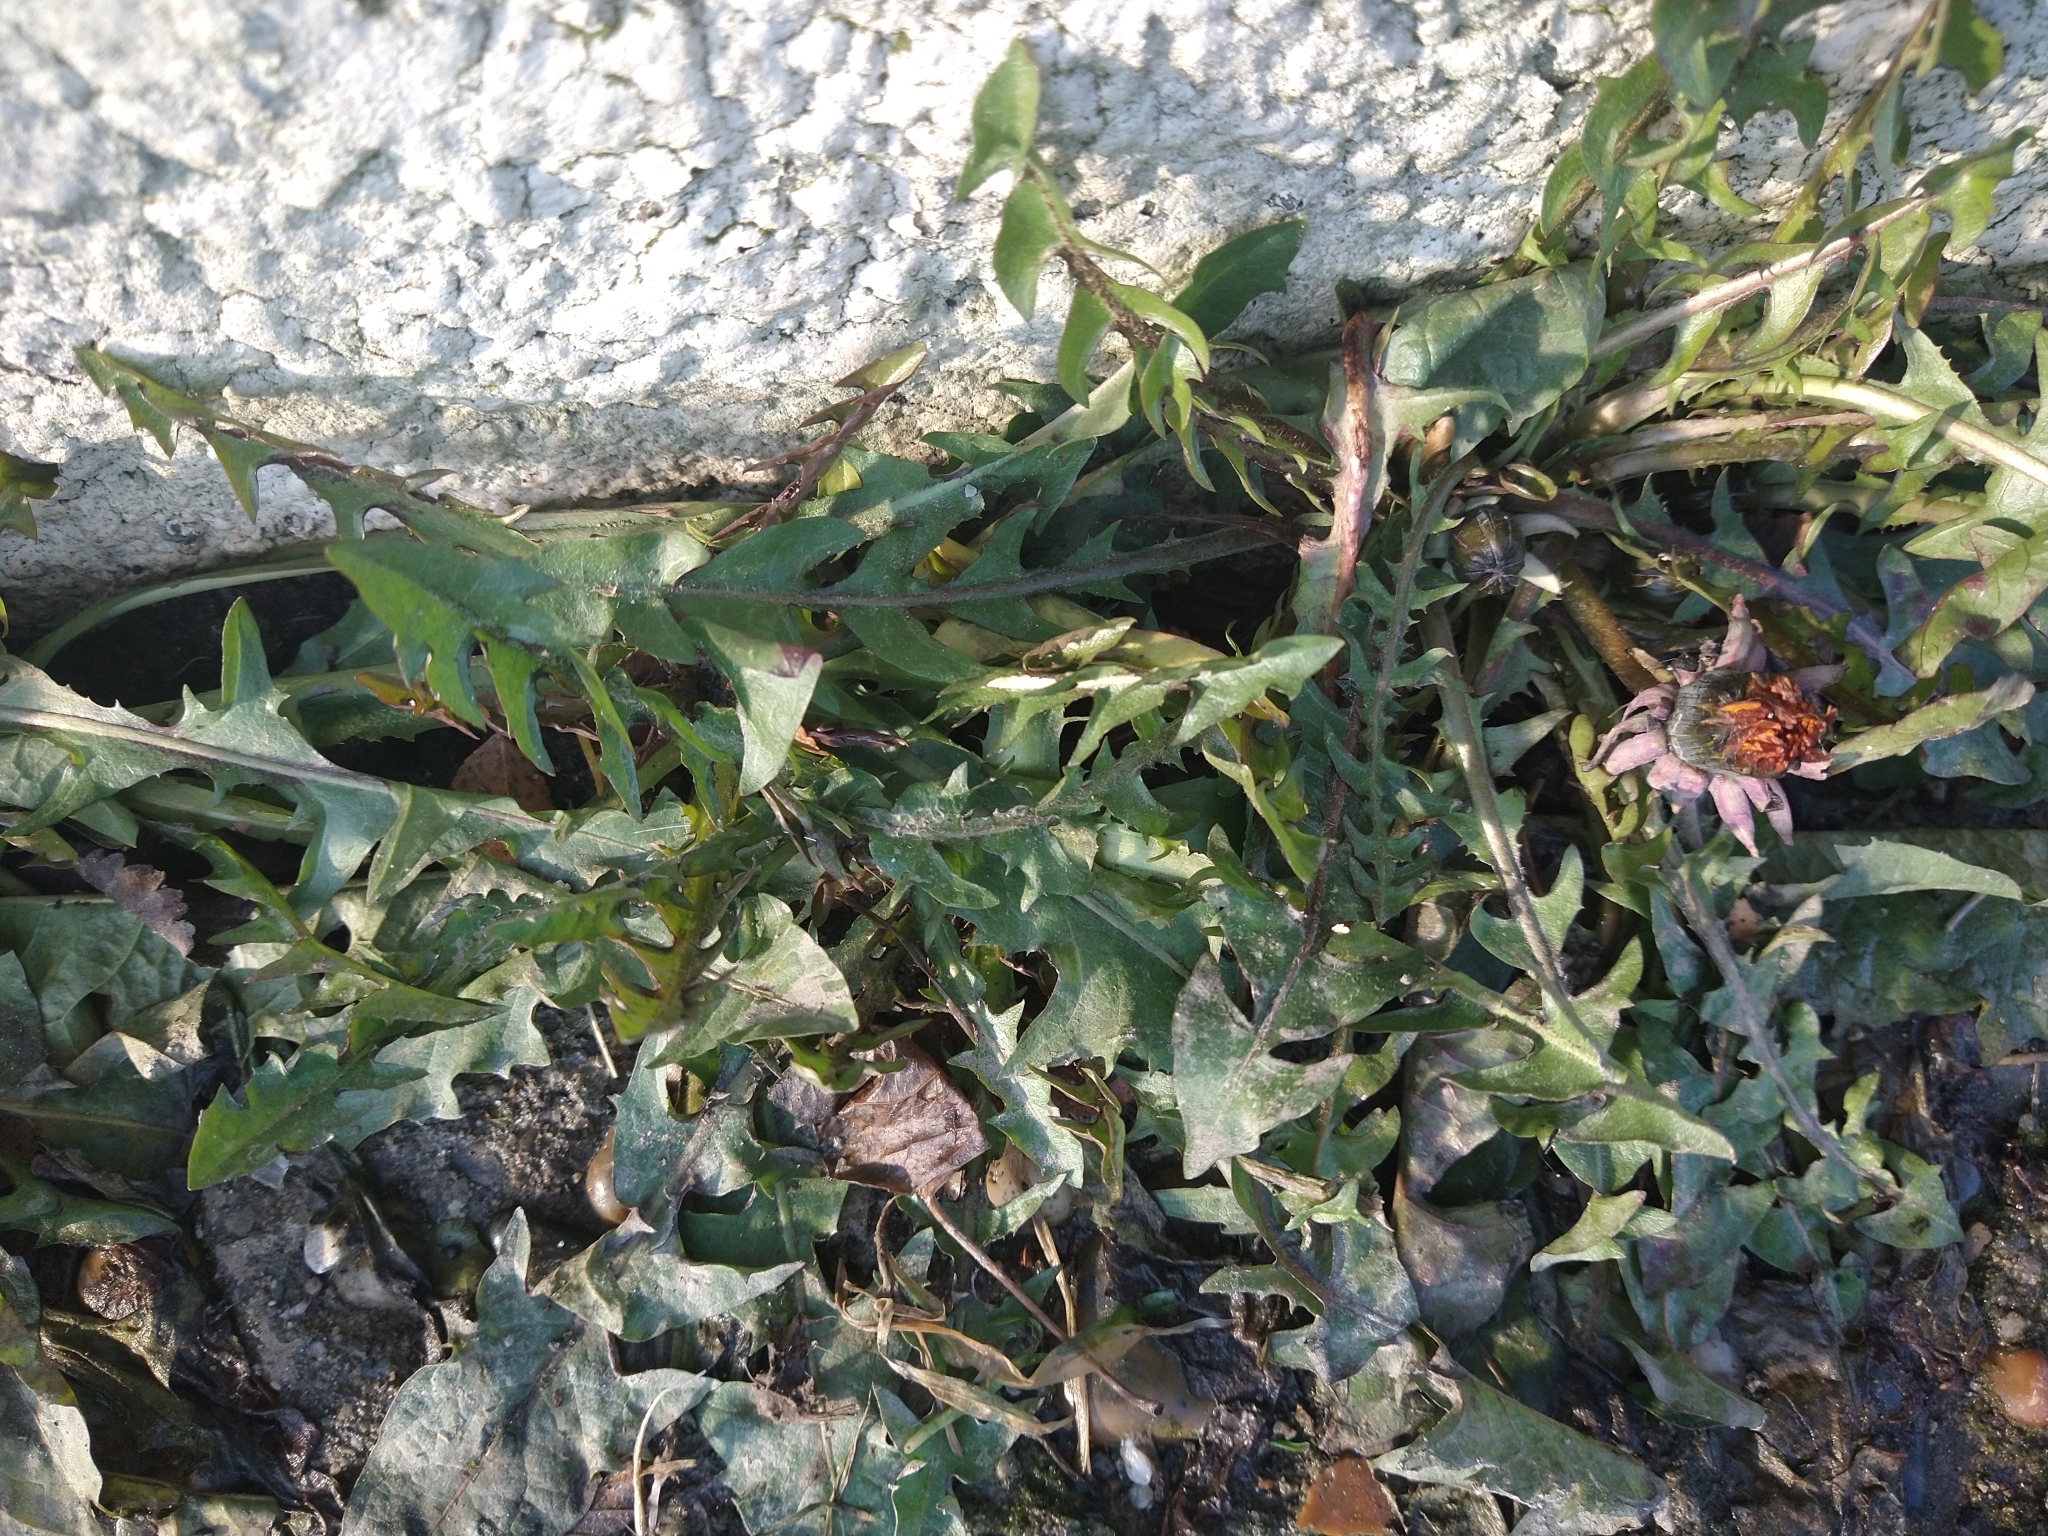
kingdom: Plantae
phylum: Tracheophyta
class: Magnoliopsida
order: Asterales
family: Asteraceae
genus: Taraxacum
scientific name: Taraxacum officinale
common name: Common dandelion
